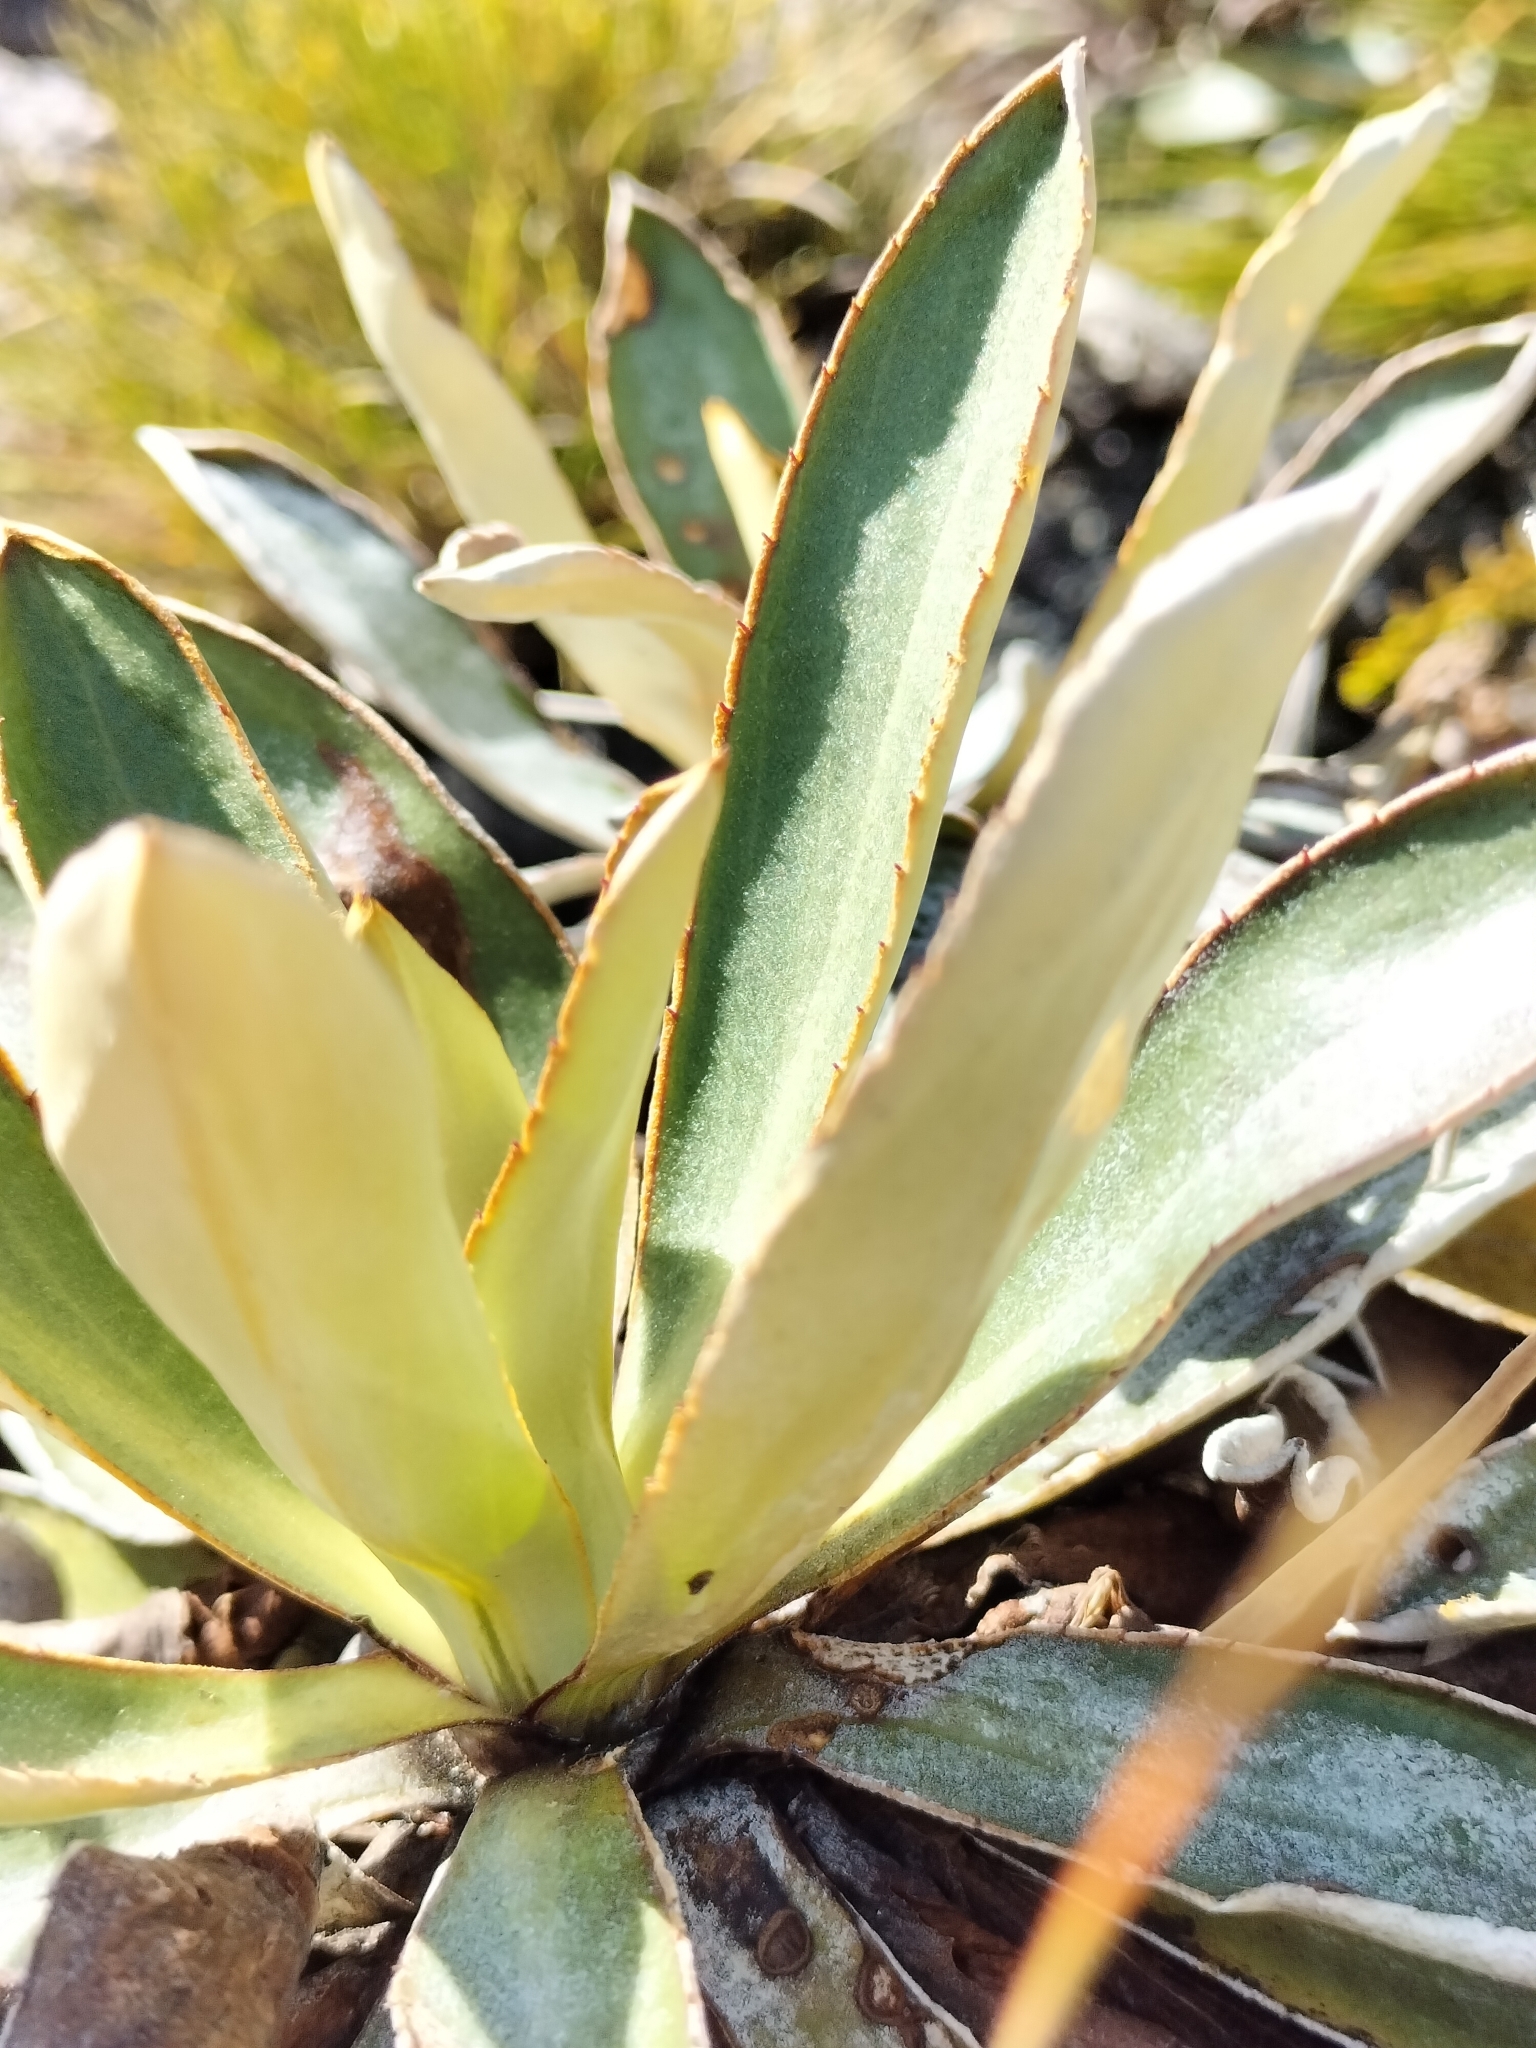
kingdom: Plantae
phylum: Tracheophyta
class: Magnoliopsida
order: Asterales
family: Asteraceae
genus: Celmisia
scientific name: Celmisia dallii
